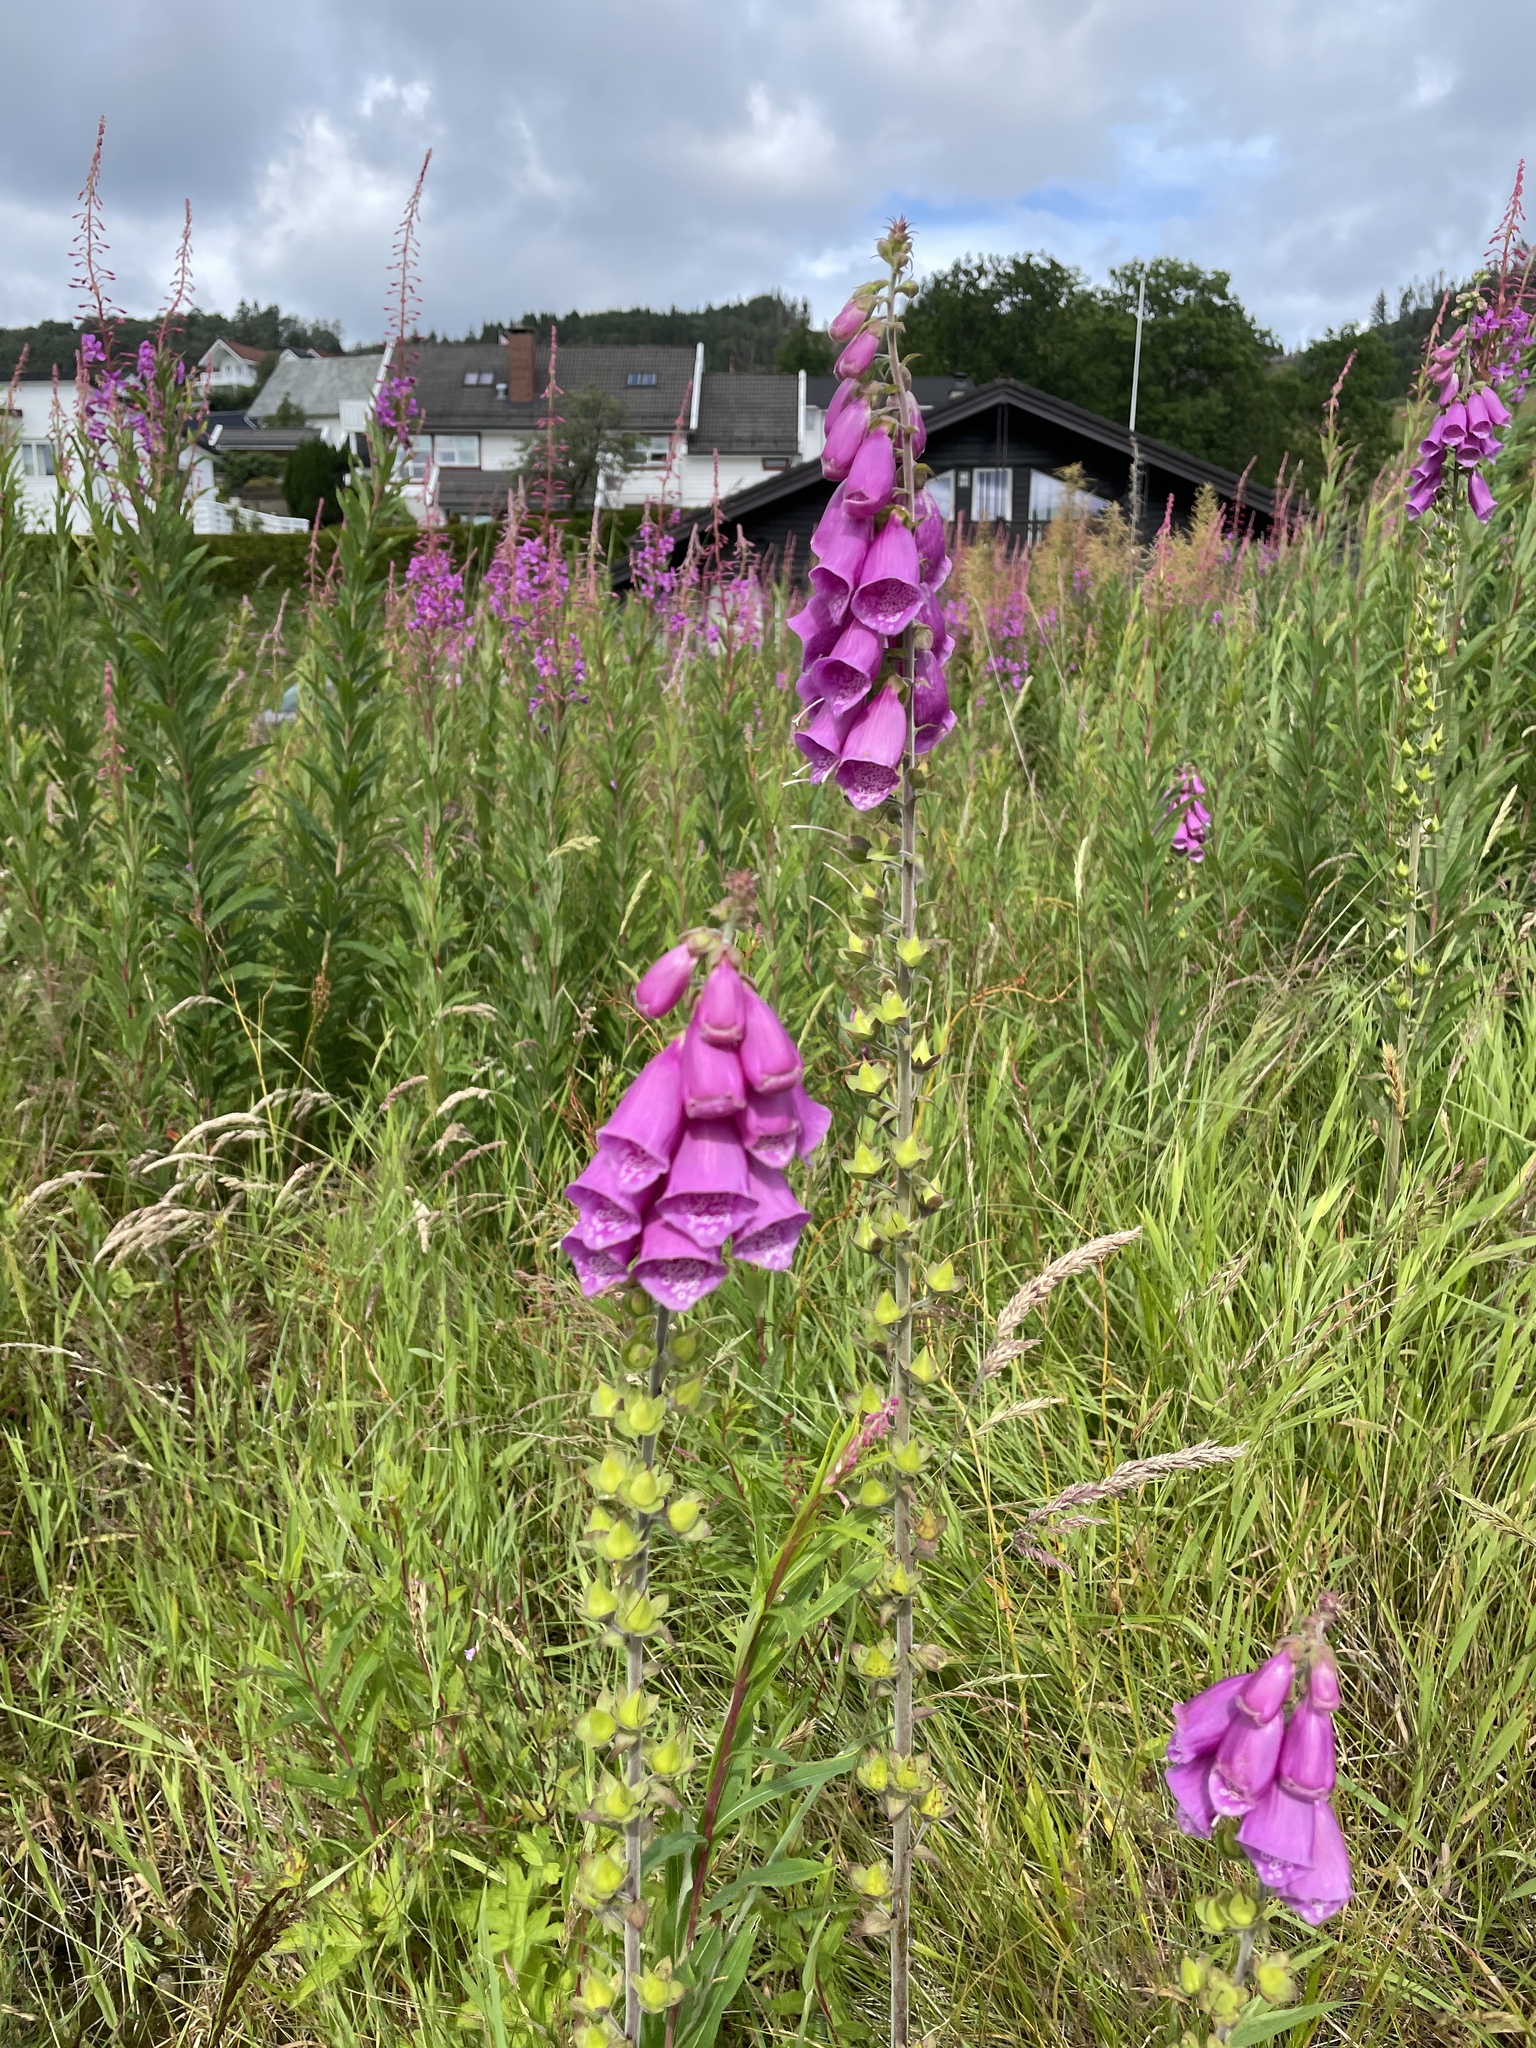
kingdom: Plantae
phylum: Tracheophyta
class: Magnoliopsida
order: Lamiales
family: Plantaginaceae
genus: Digitalis
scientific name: Digitalis purpurea
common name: Foxglove
